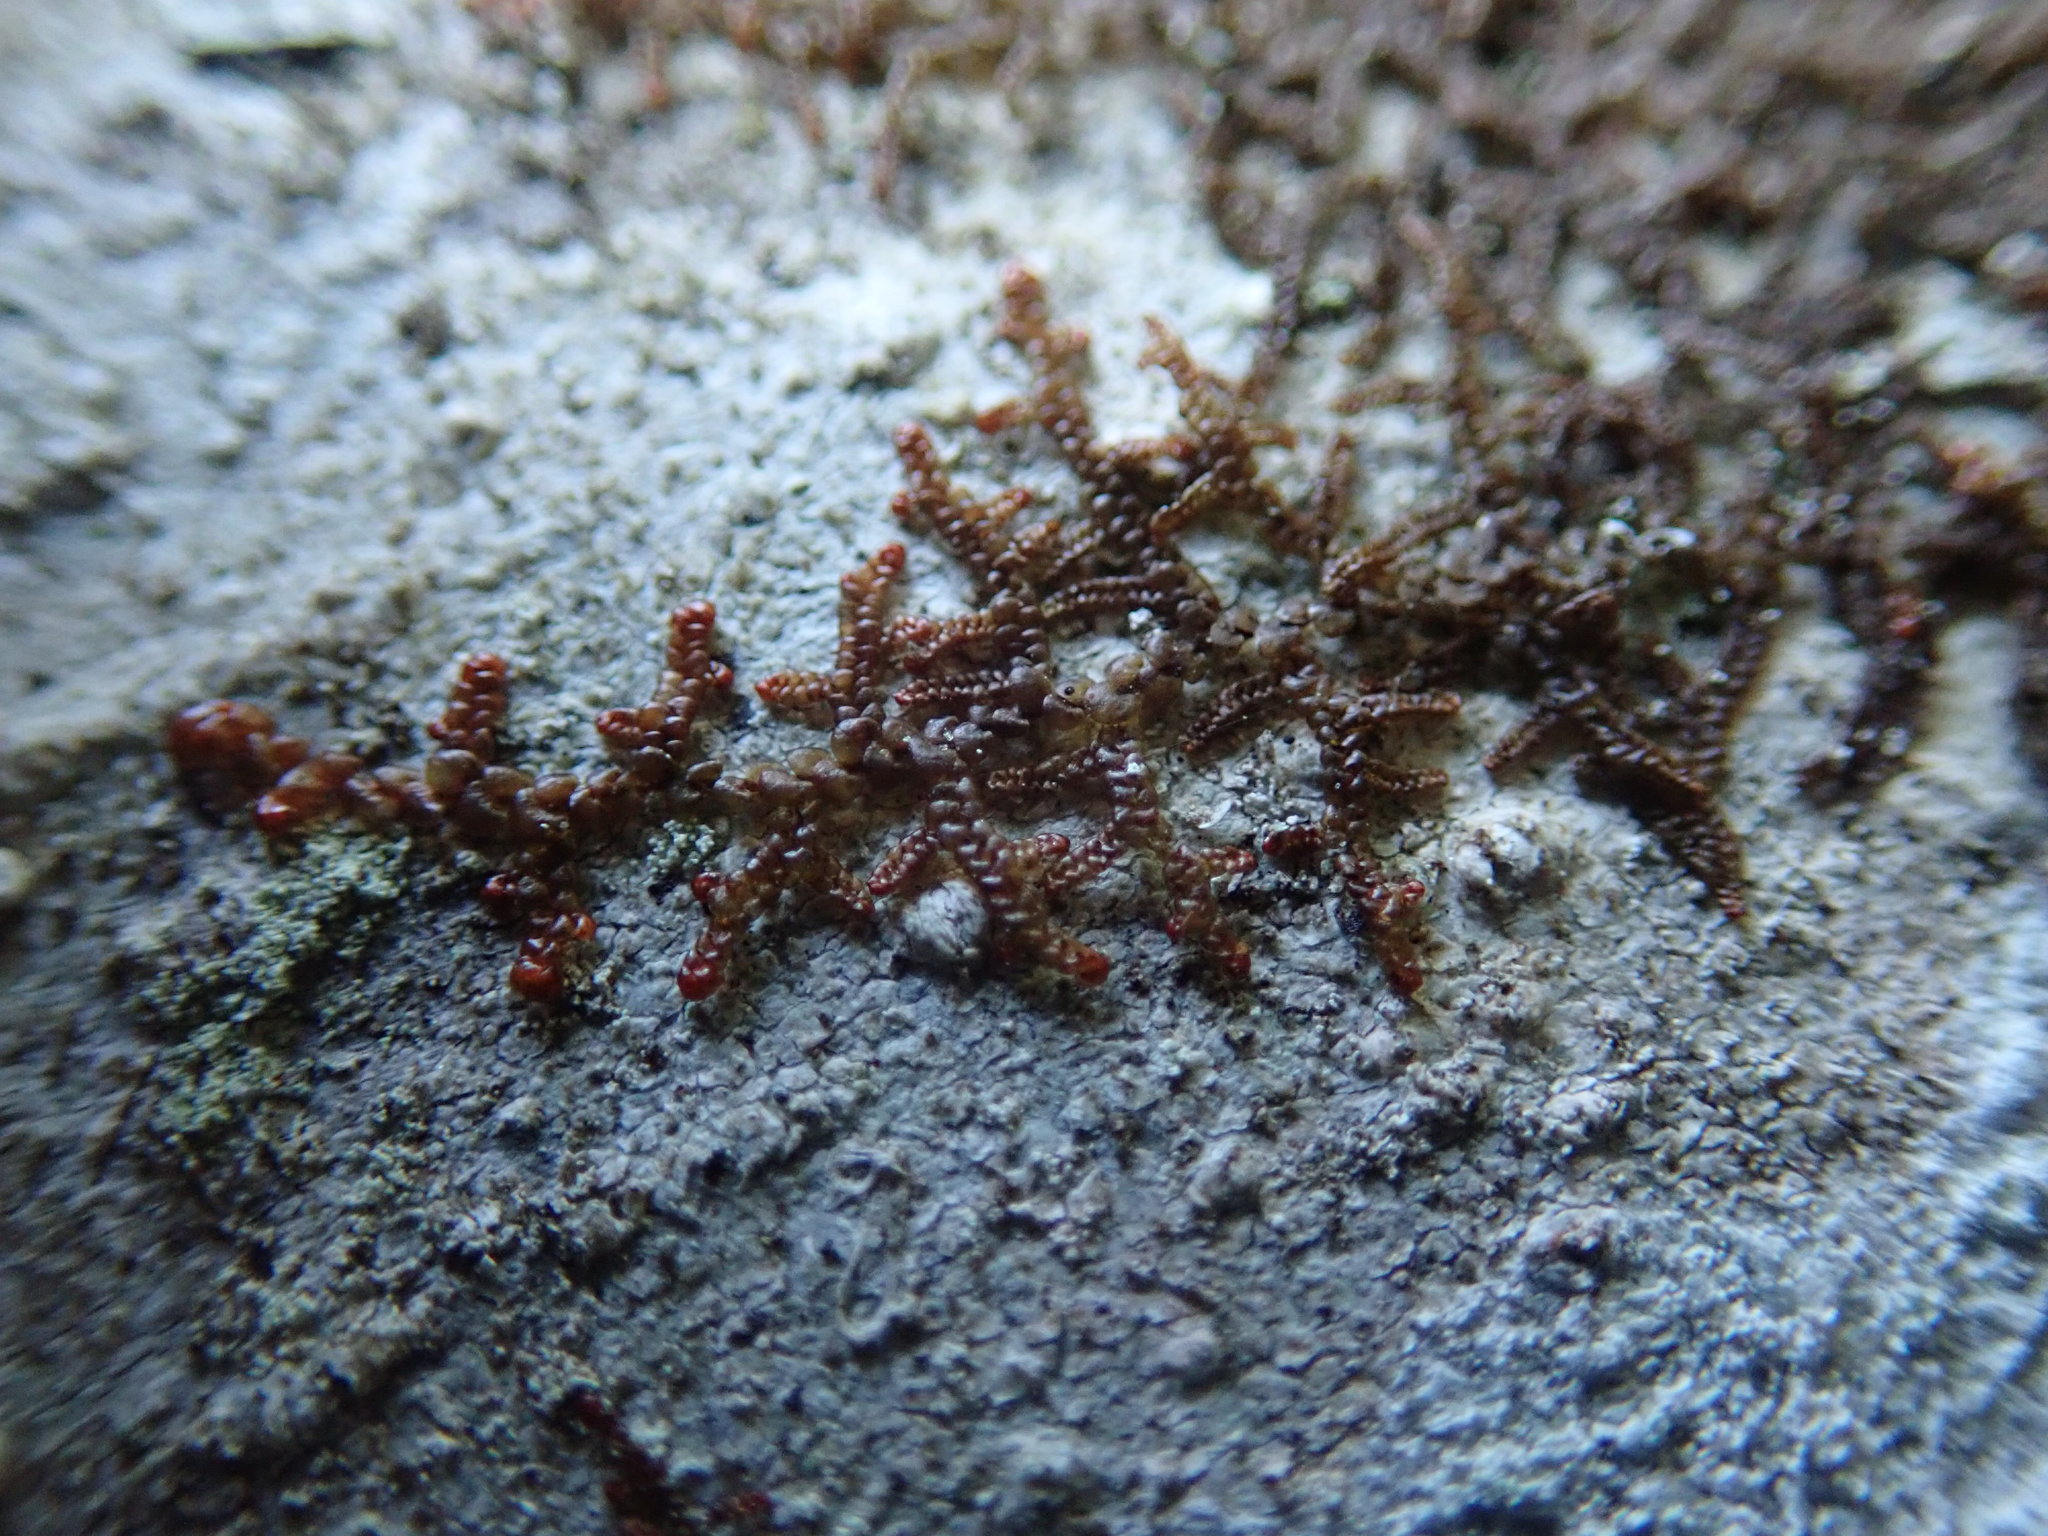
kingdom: Plantae
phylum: Marchantiophyta
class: Jungermanniopsida
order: Porellales
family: Frullaniaceae
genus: Frullania
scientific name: Frullania nisquallensis
